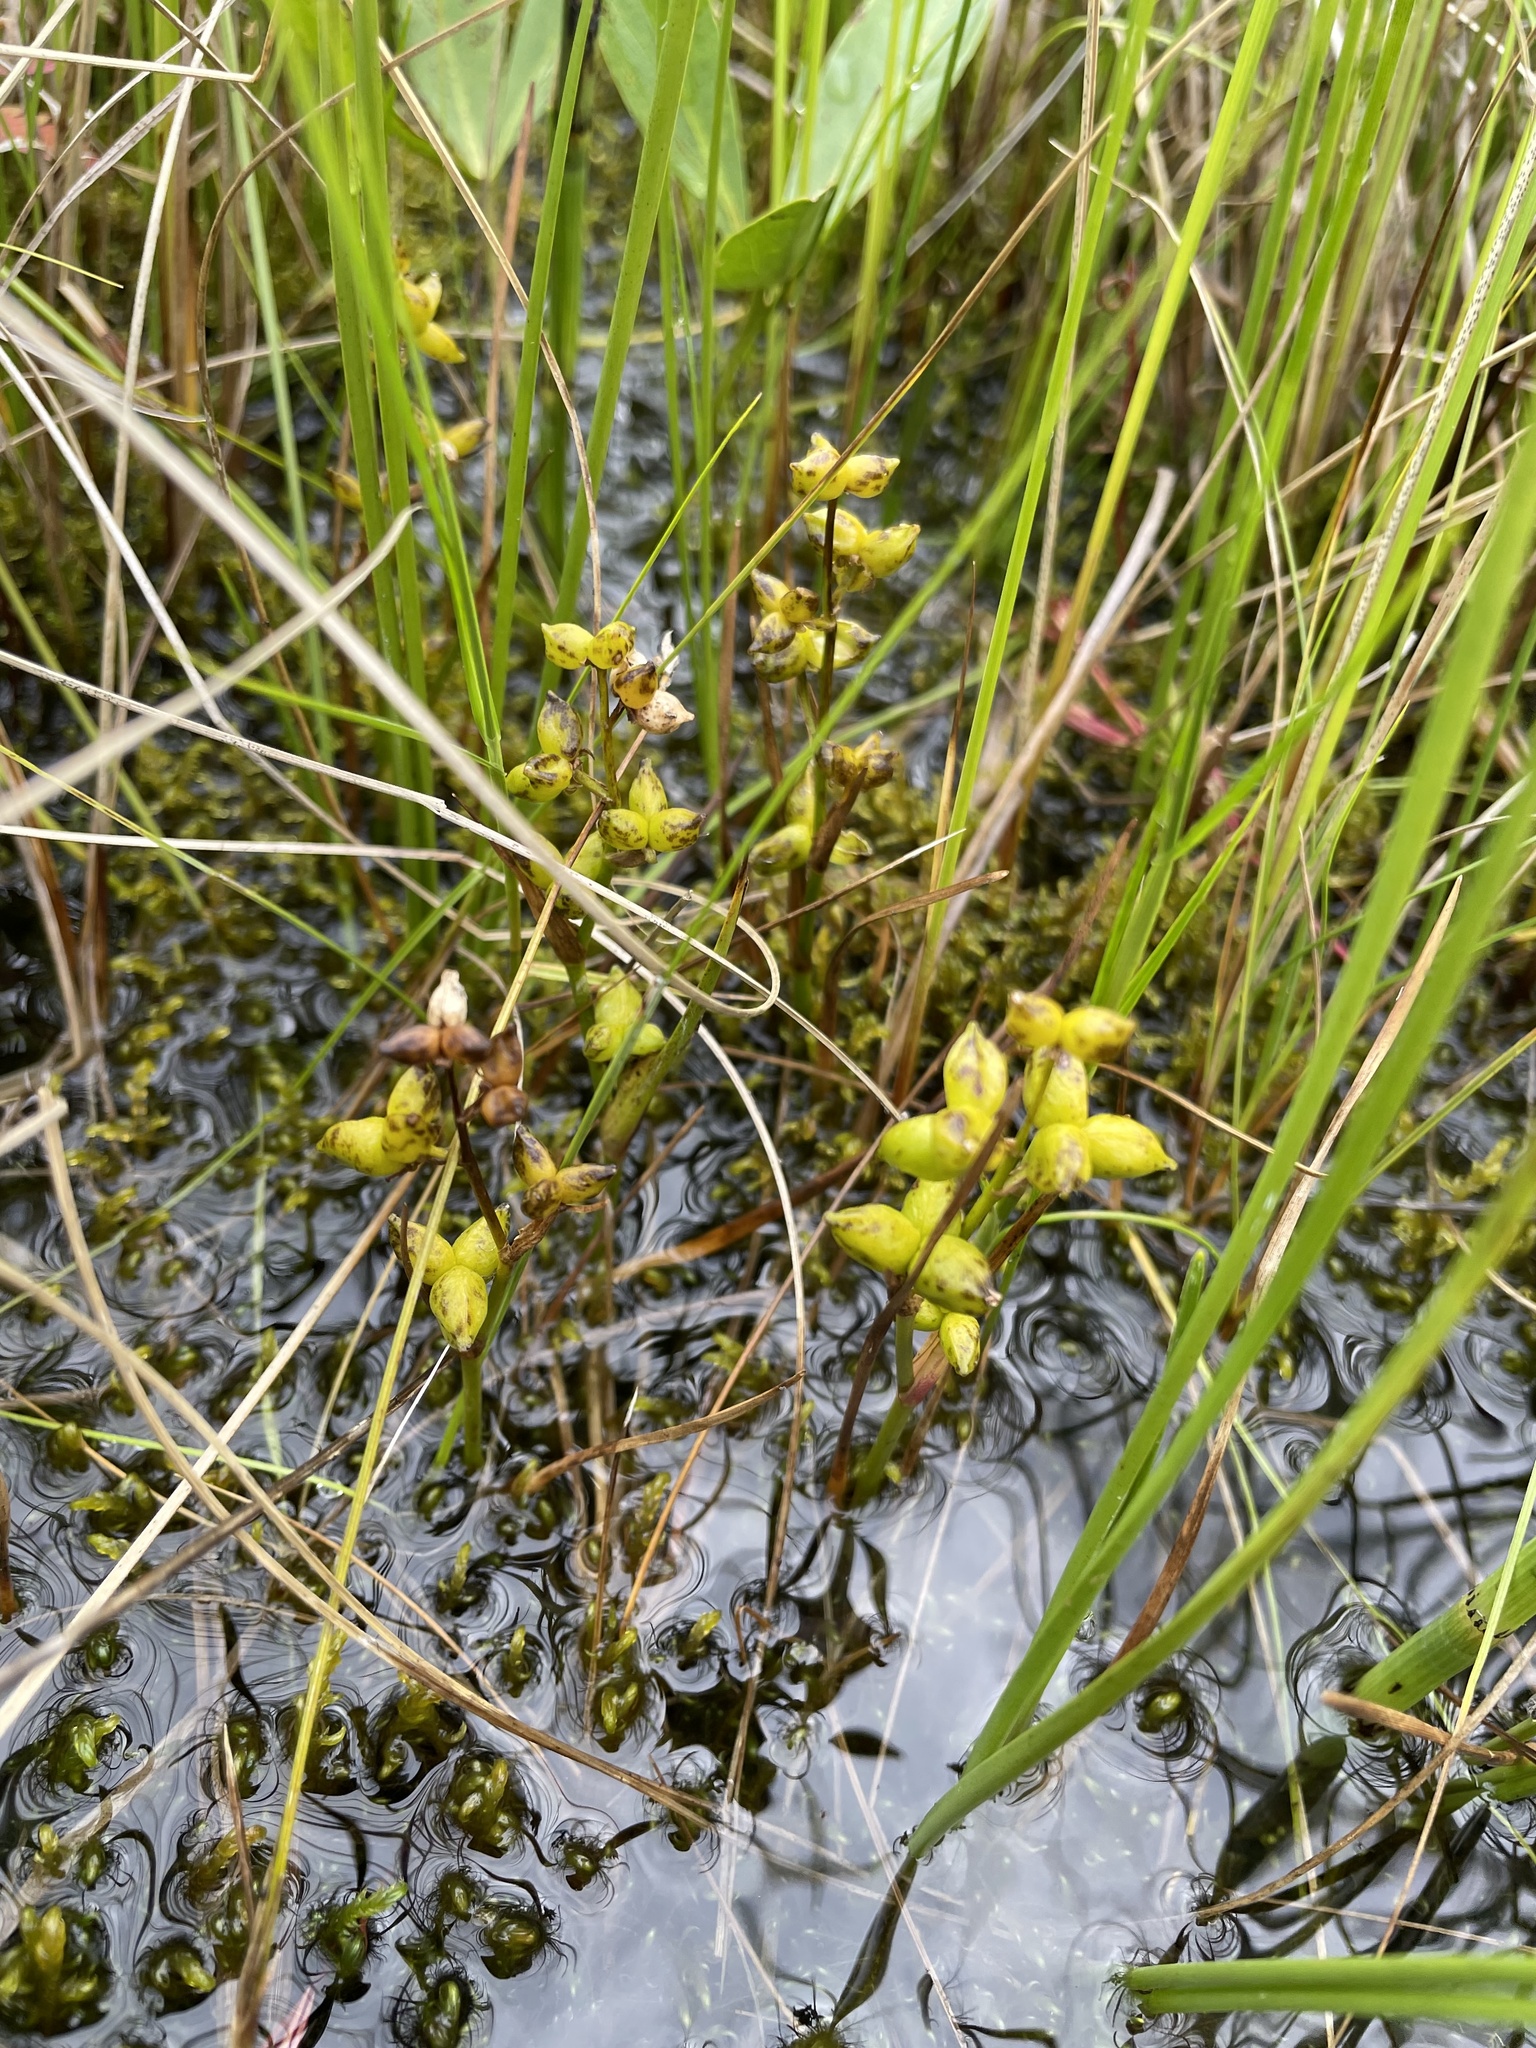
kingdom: Plantae
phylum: Tracheophyta
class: Liliopsida
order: Alismatales
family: Scheuchzeriaceae
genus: Scheuchzeria
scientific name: Scheuchzeria palustris
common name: Rannoch-rush
